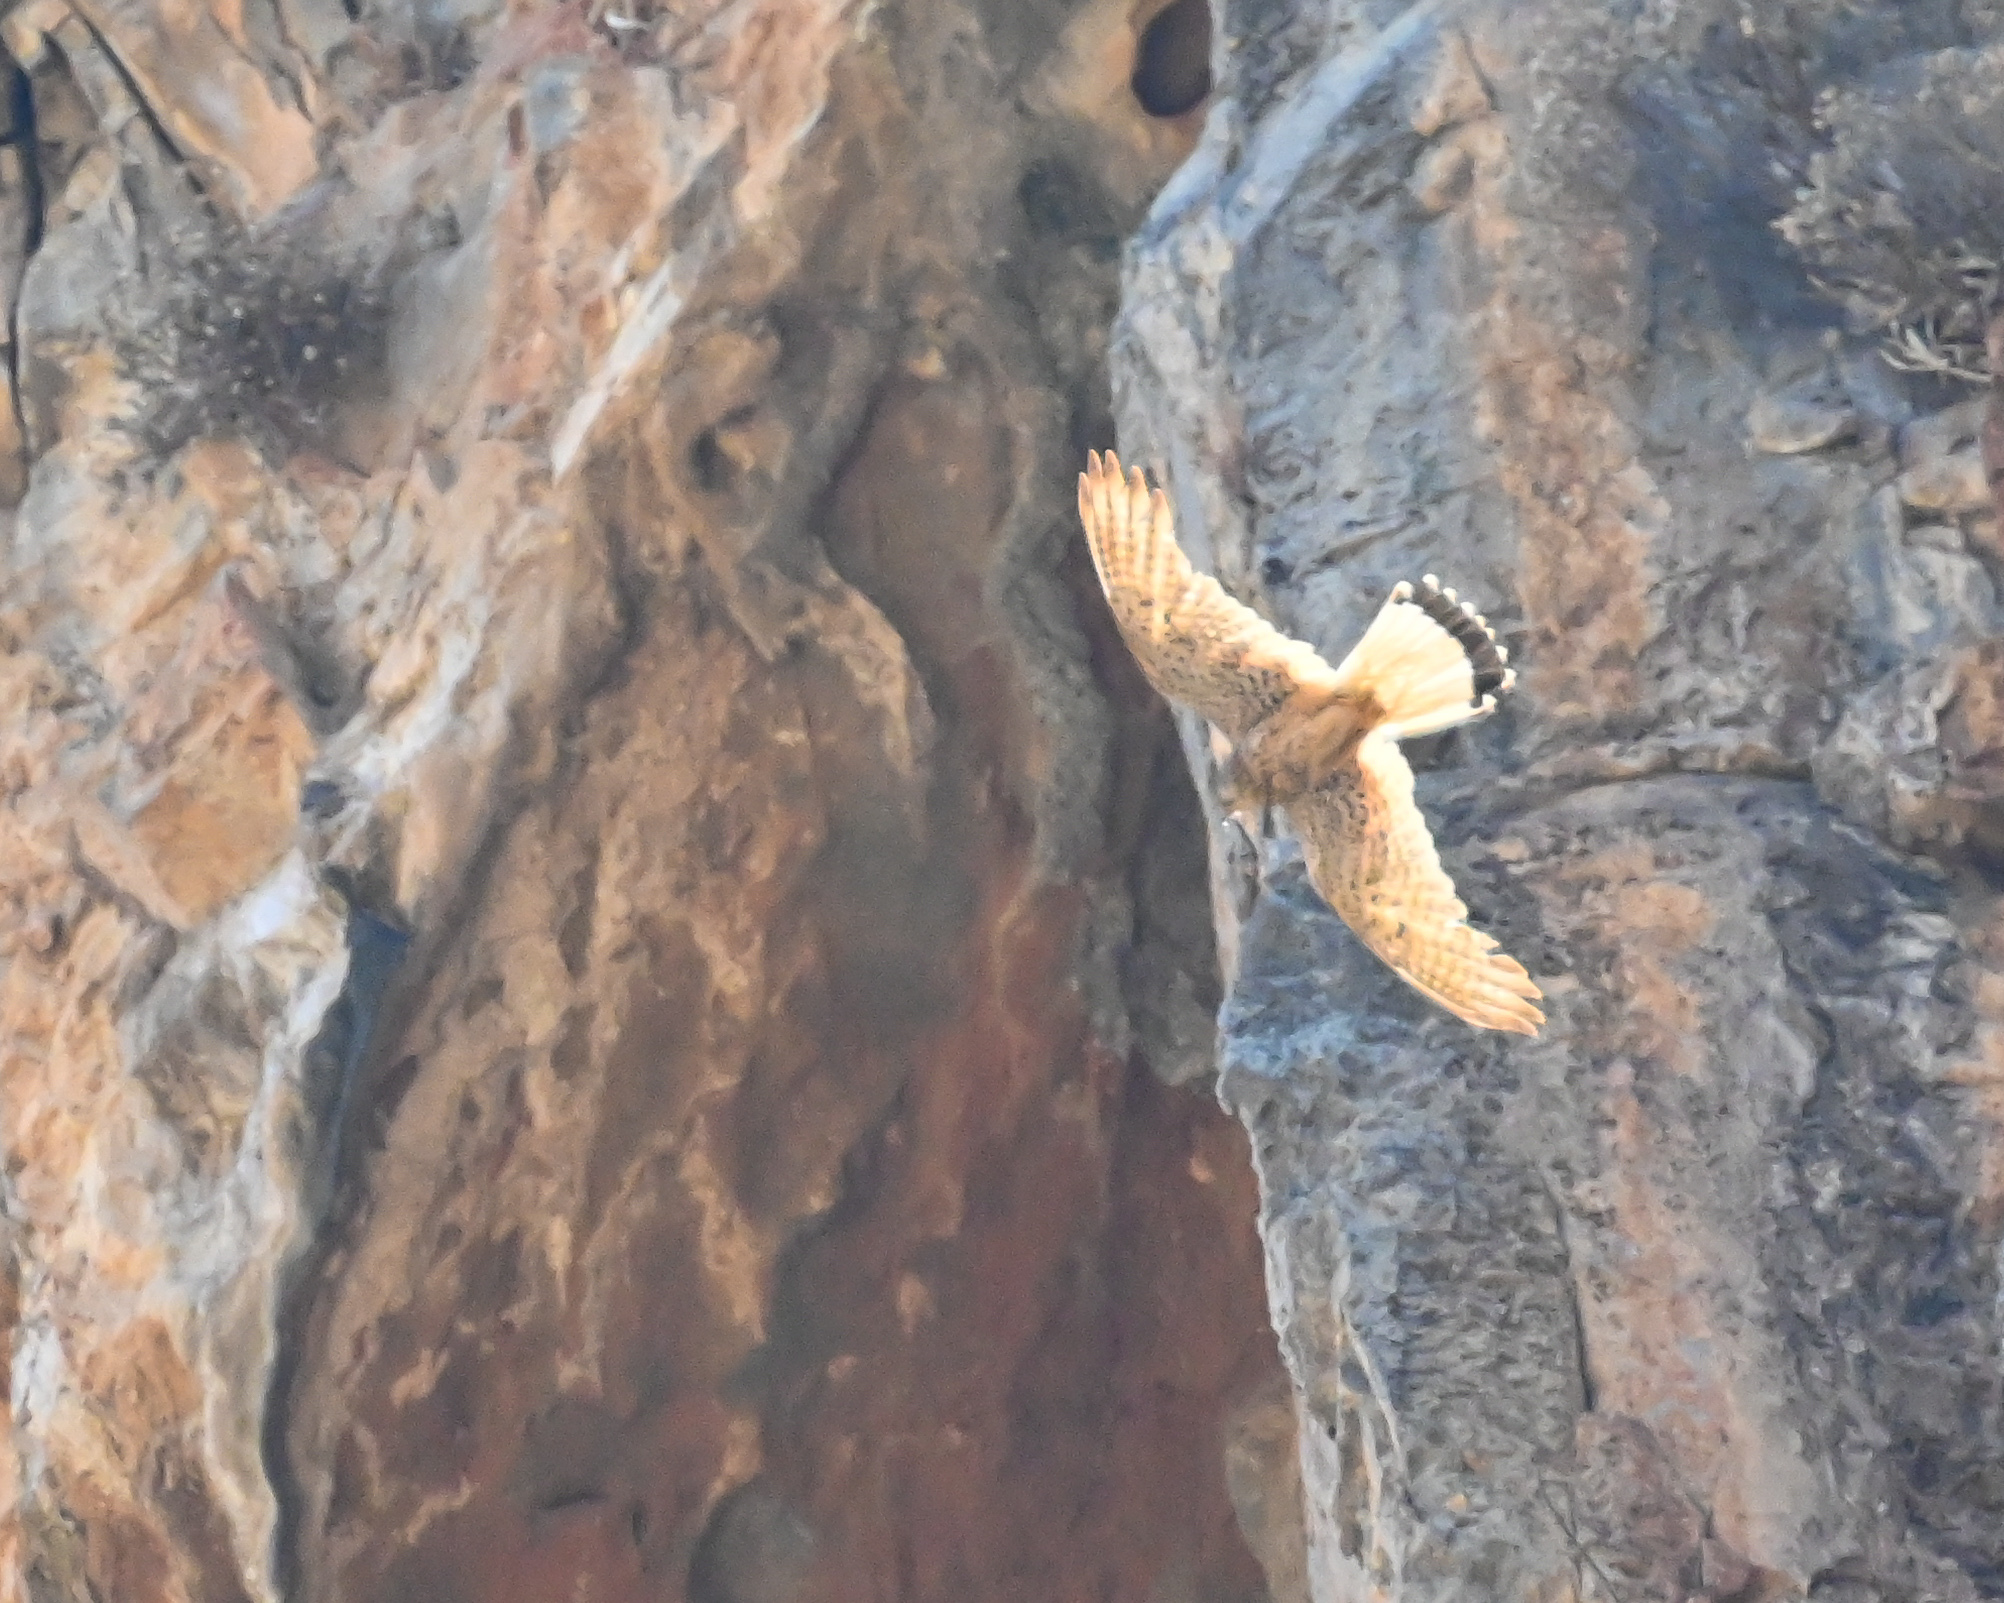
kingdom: Animalia
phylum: Chordata
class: Aves
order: Falconiformes
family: Falconidae
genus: Falco
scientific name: Falco tinnunculus
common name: Common kestrel
